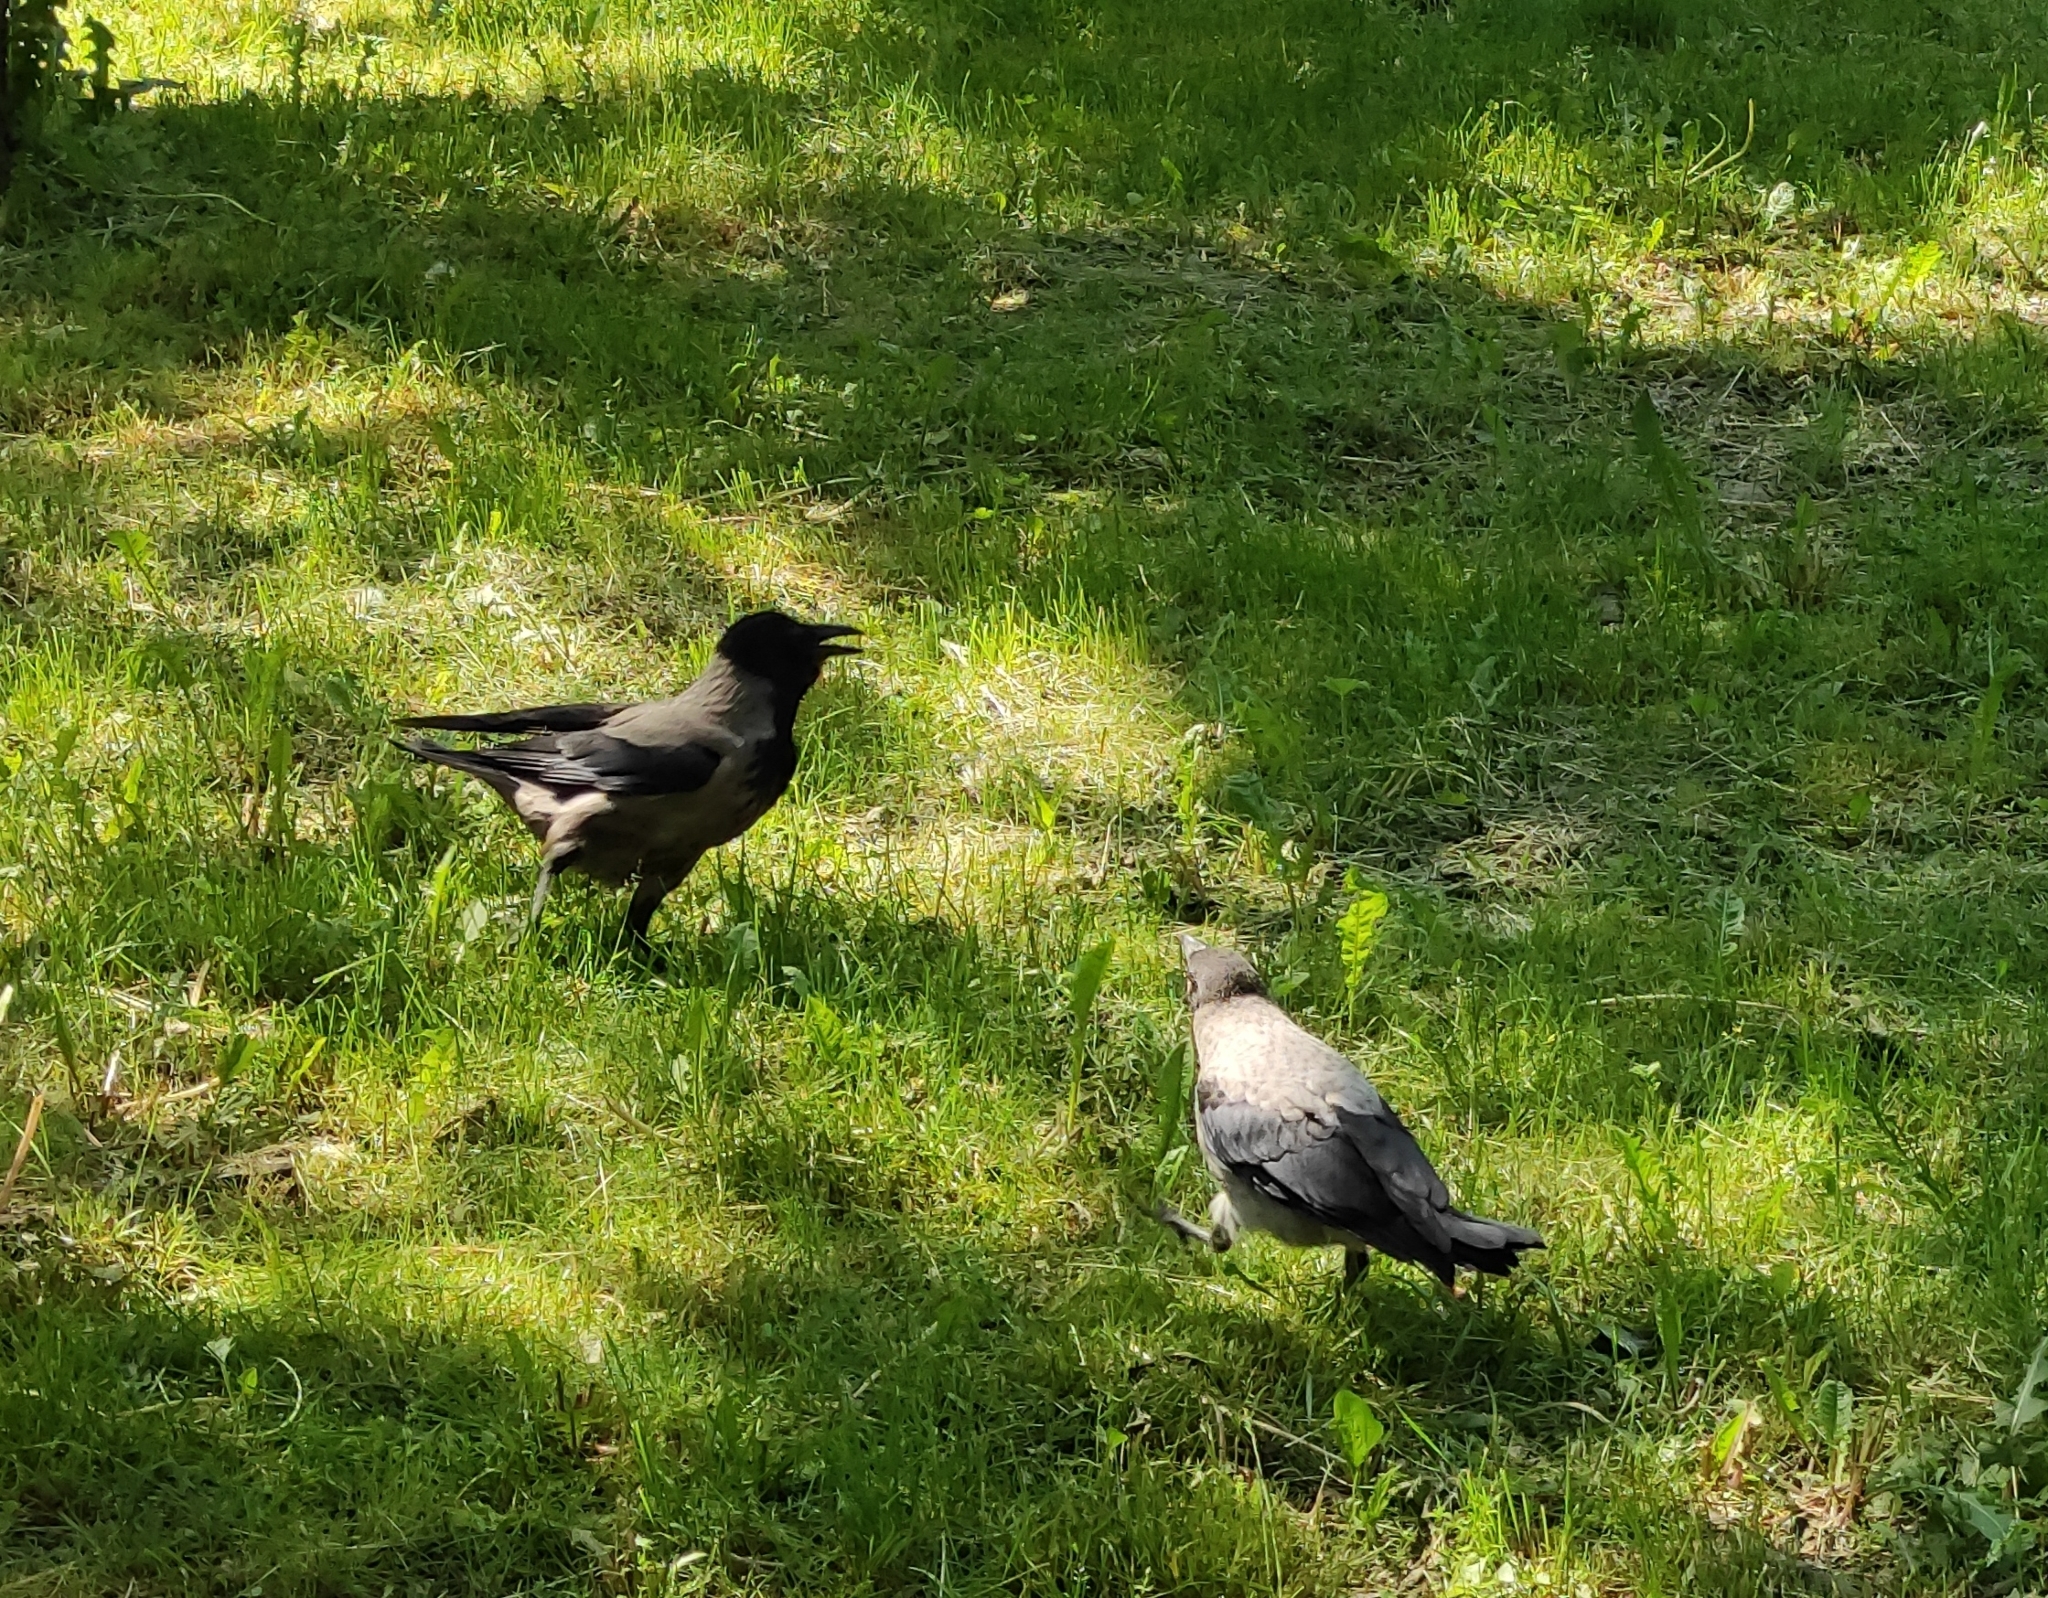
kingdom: Animalia
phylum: Chordata
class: Aves
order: Passeriformes
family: Corvidae
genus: Corvus
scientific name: Corvus cornix
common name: Hooded crow
